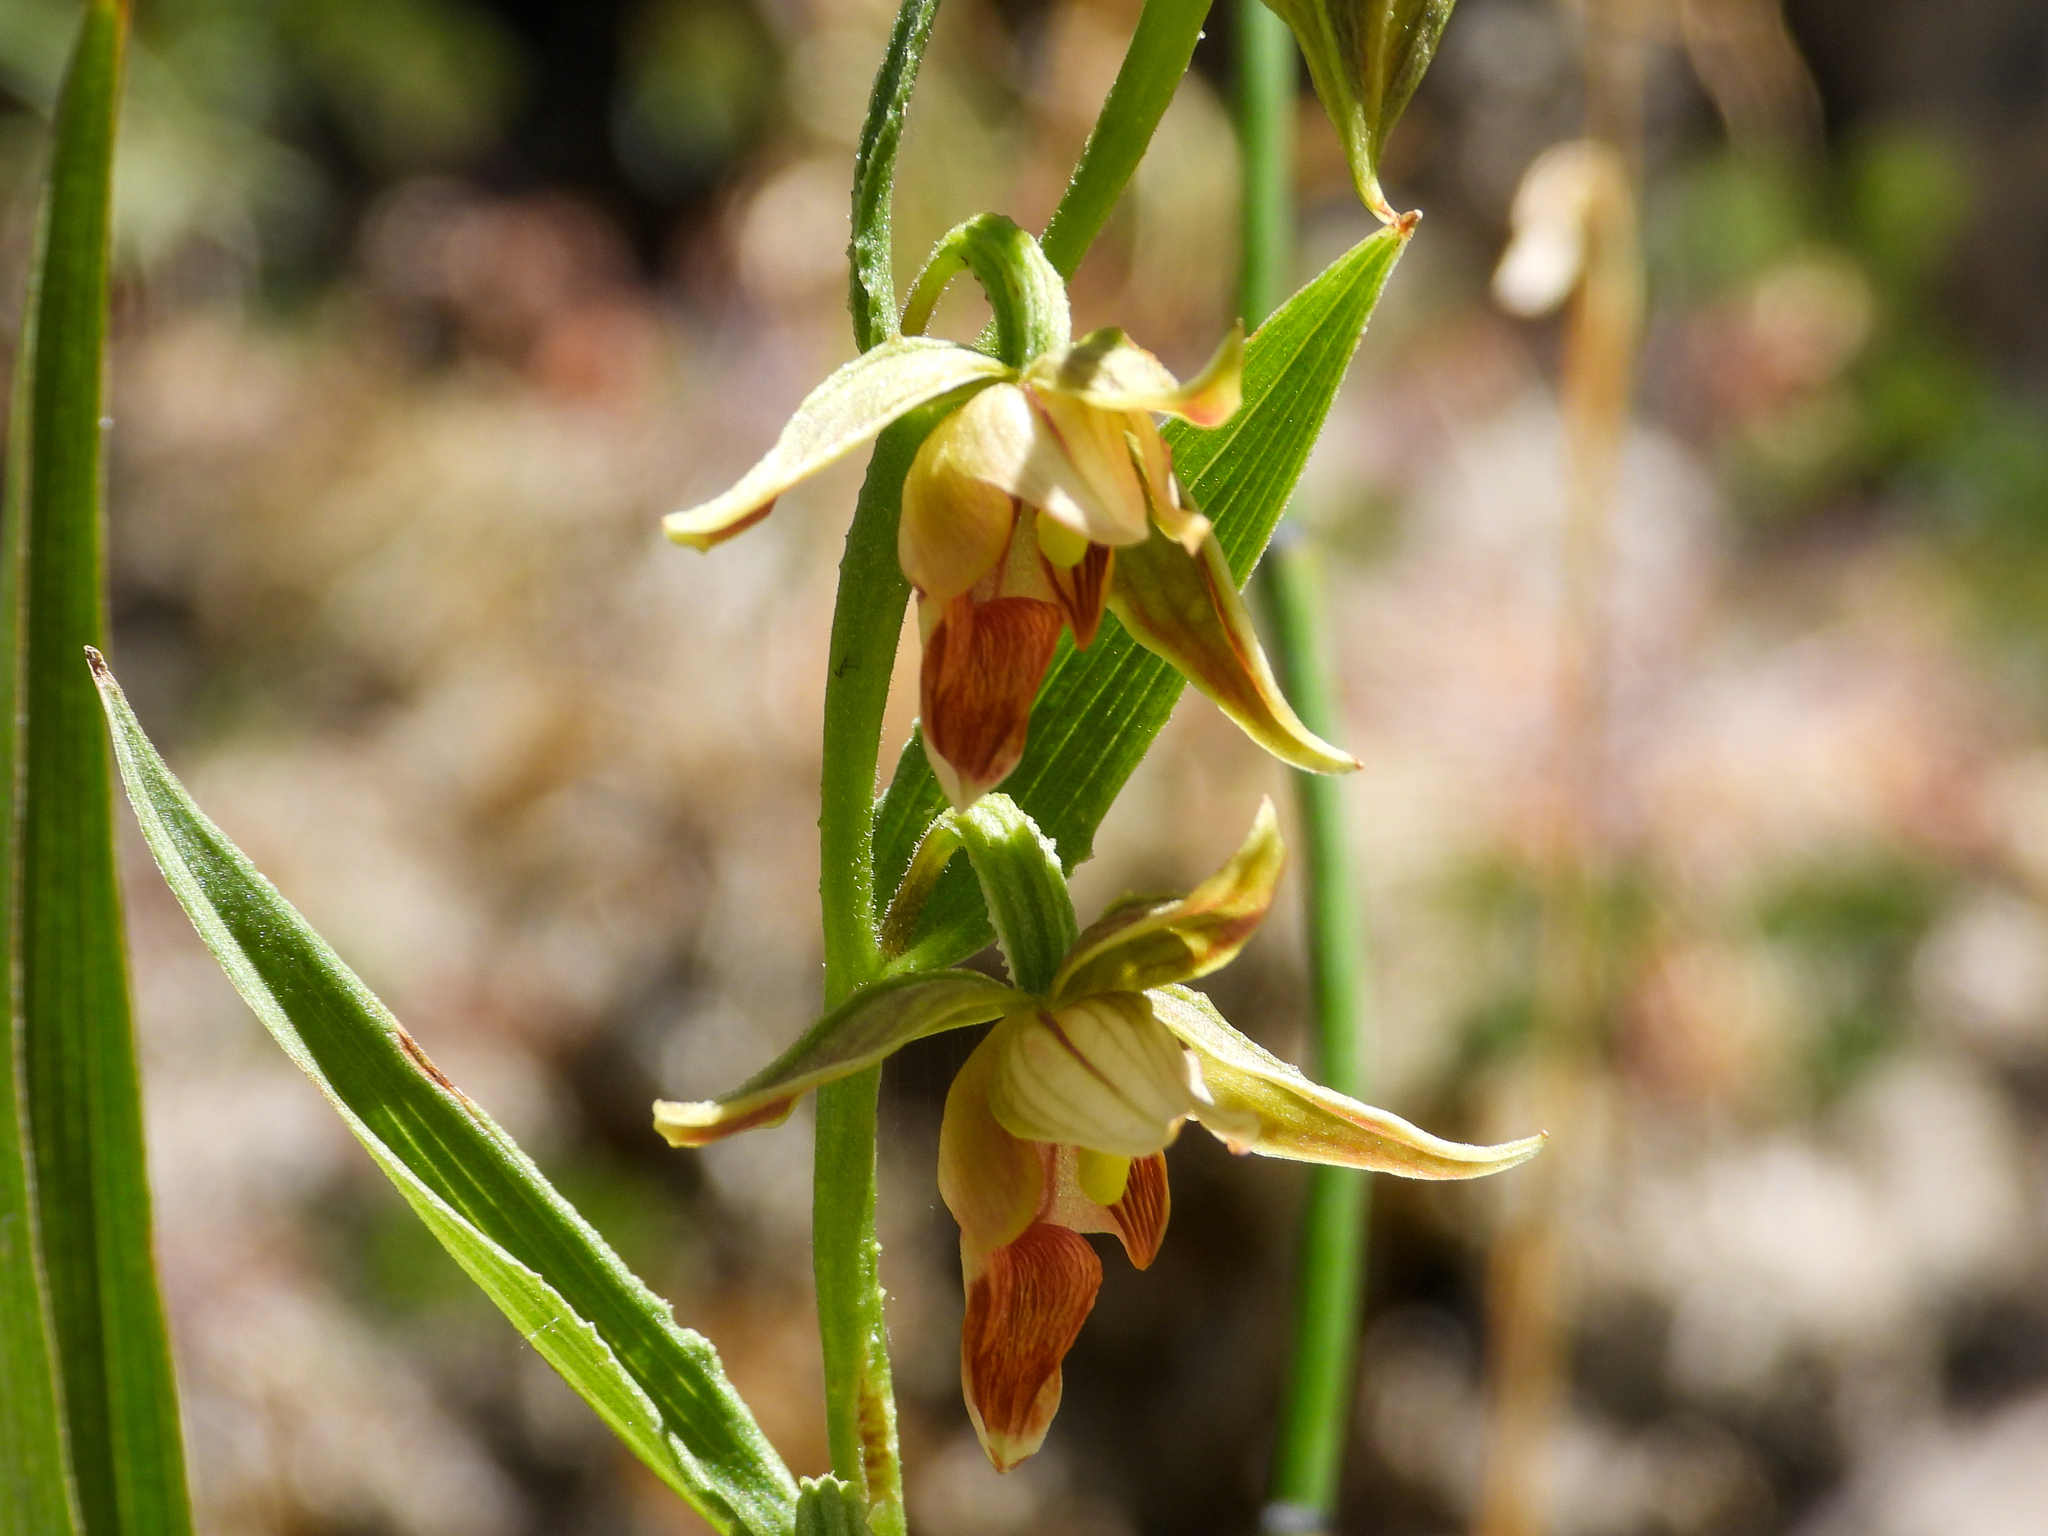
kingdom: Plantae
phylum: Tracheophyta
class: Liliopsida
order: Asparagales
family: Orchidaceae
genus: Epipactis
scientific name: Epipactis gigantea
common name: Chatterbox
